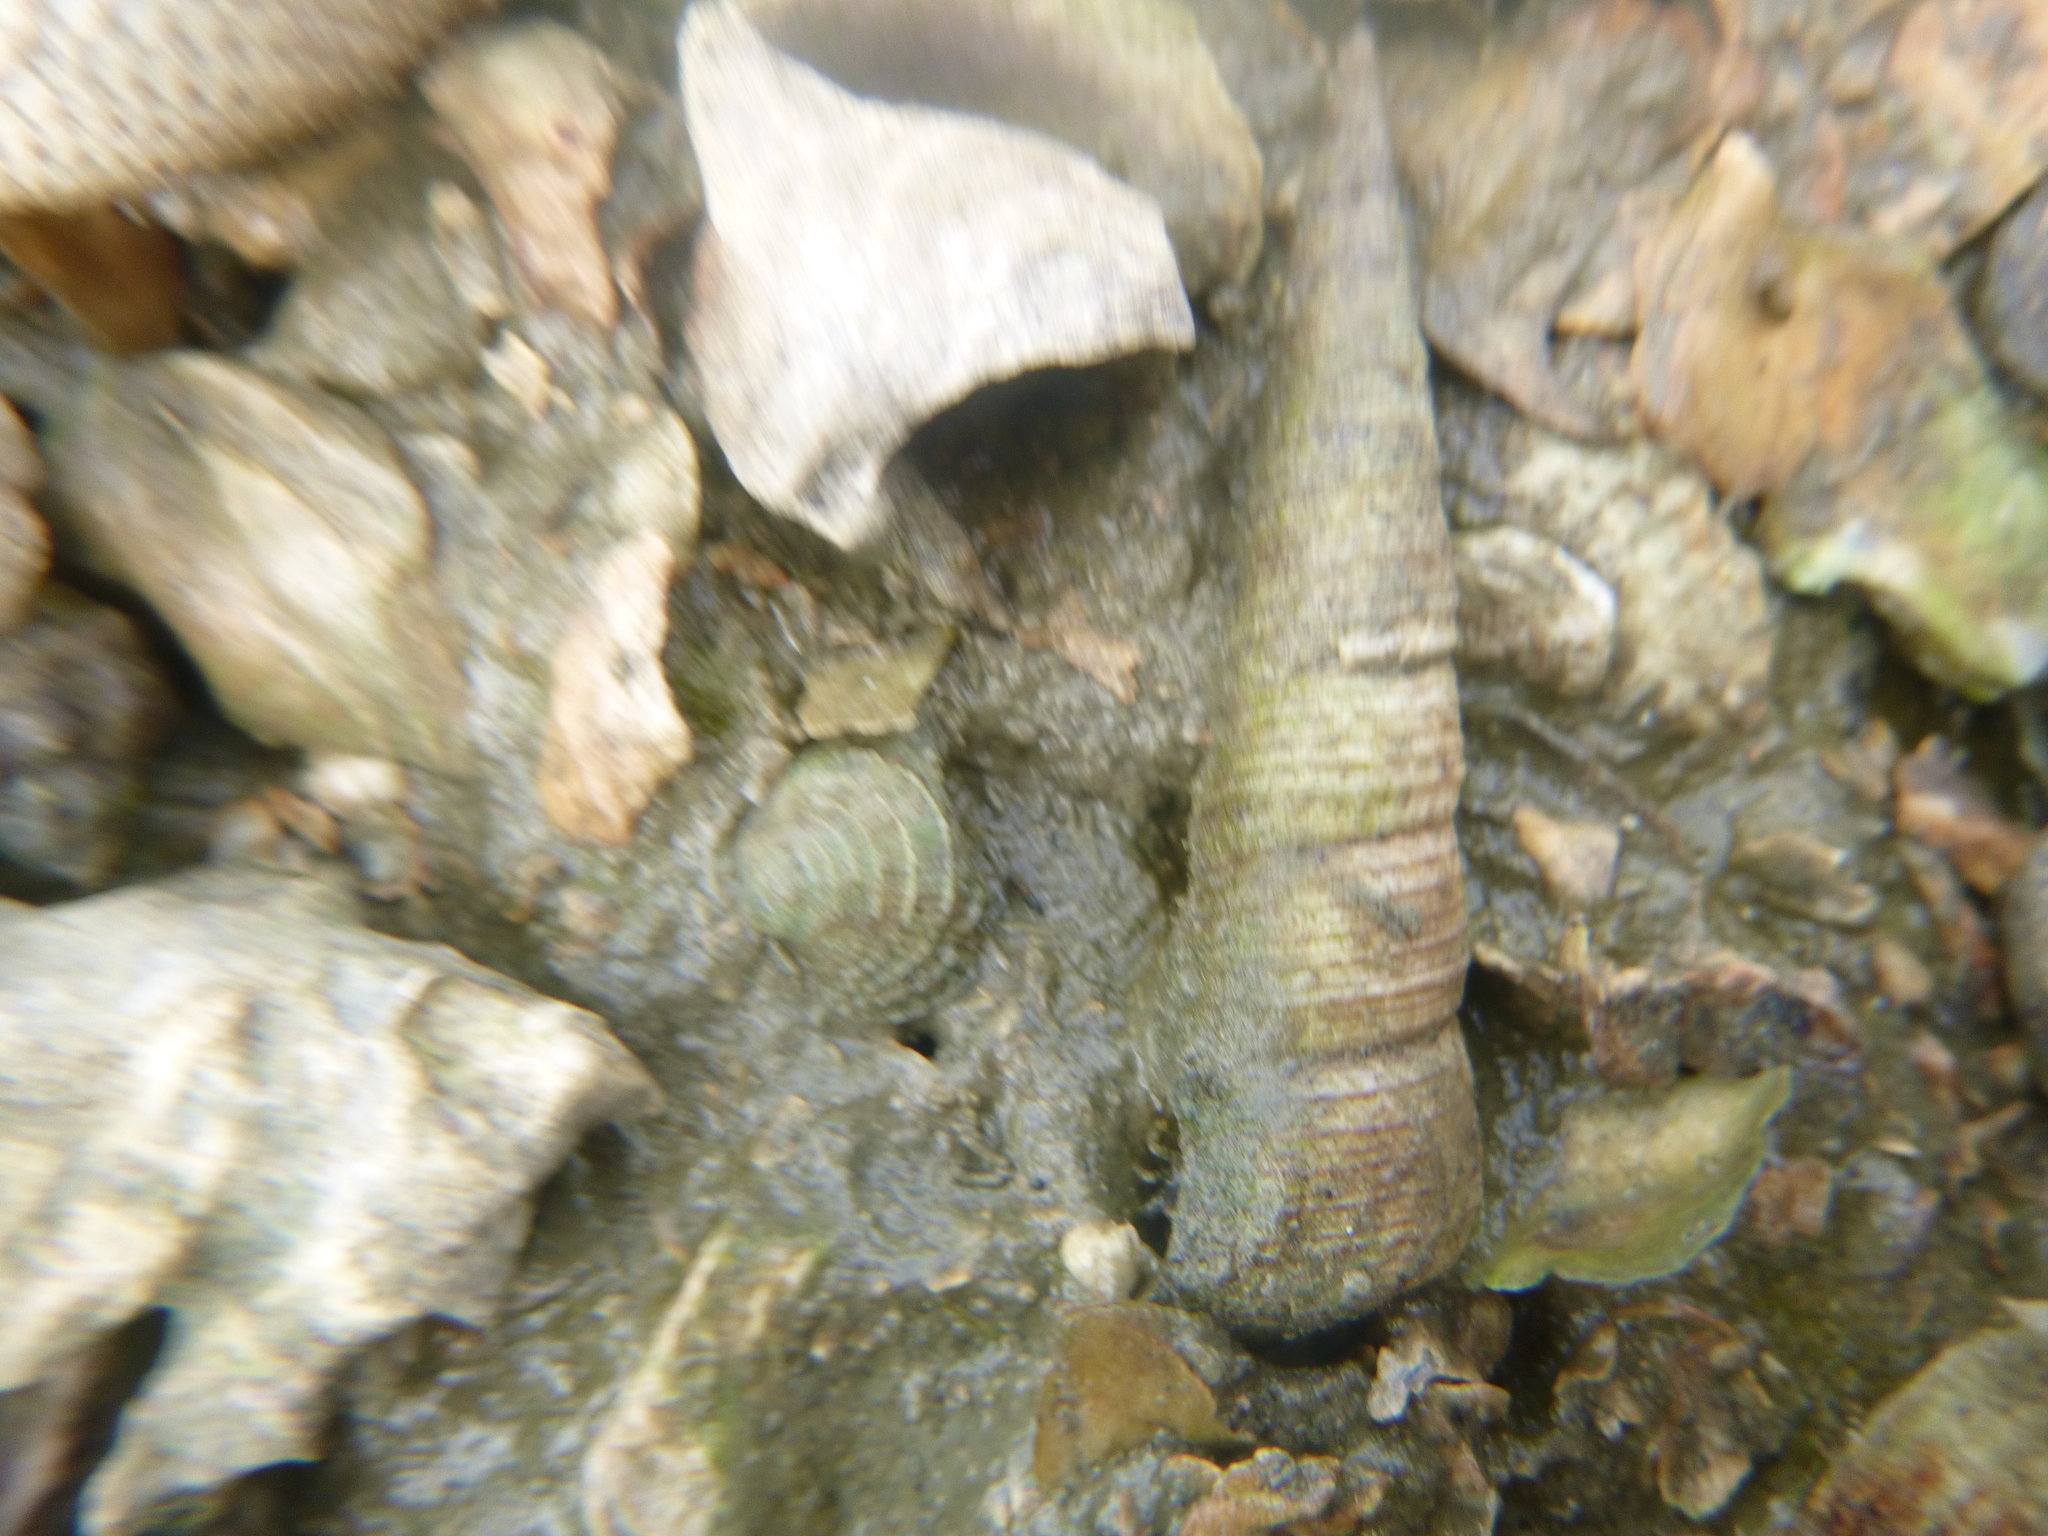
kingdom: Animalia
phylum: Mollusca
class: Gastropoda
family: Turritellidae
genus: Maoricolpus
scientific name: Maoricolpus roseus
